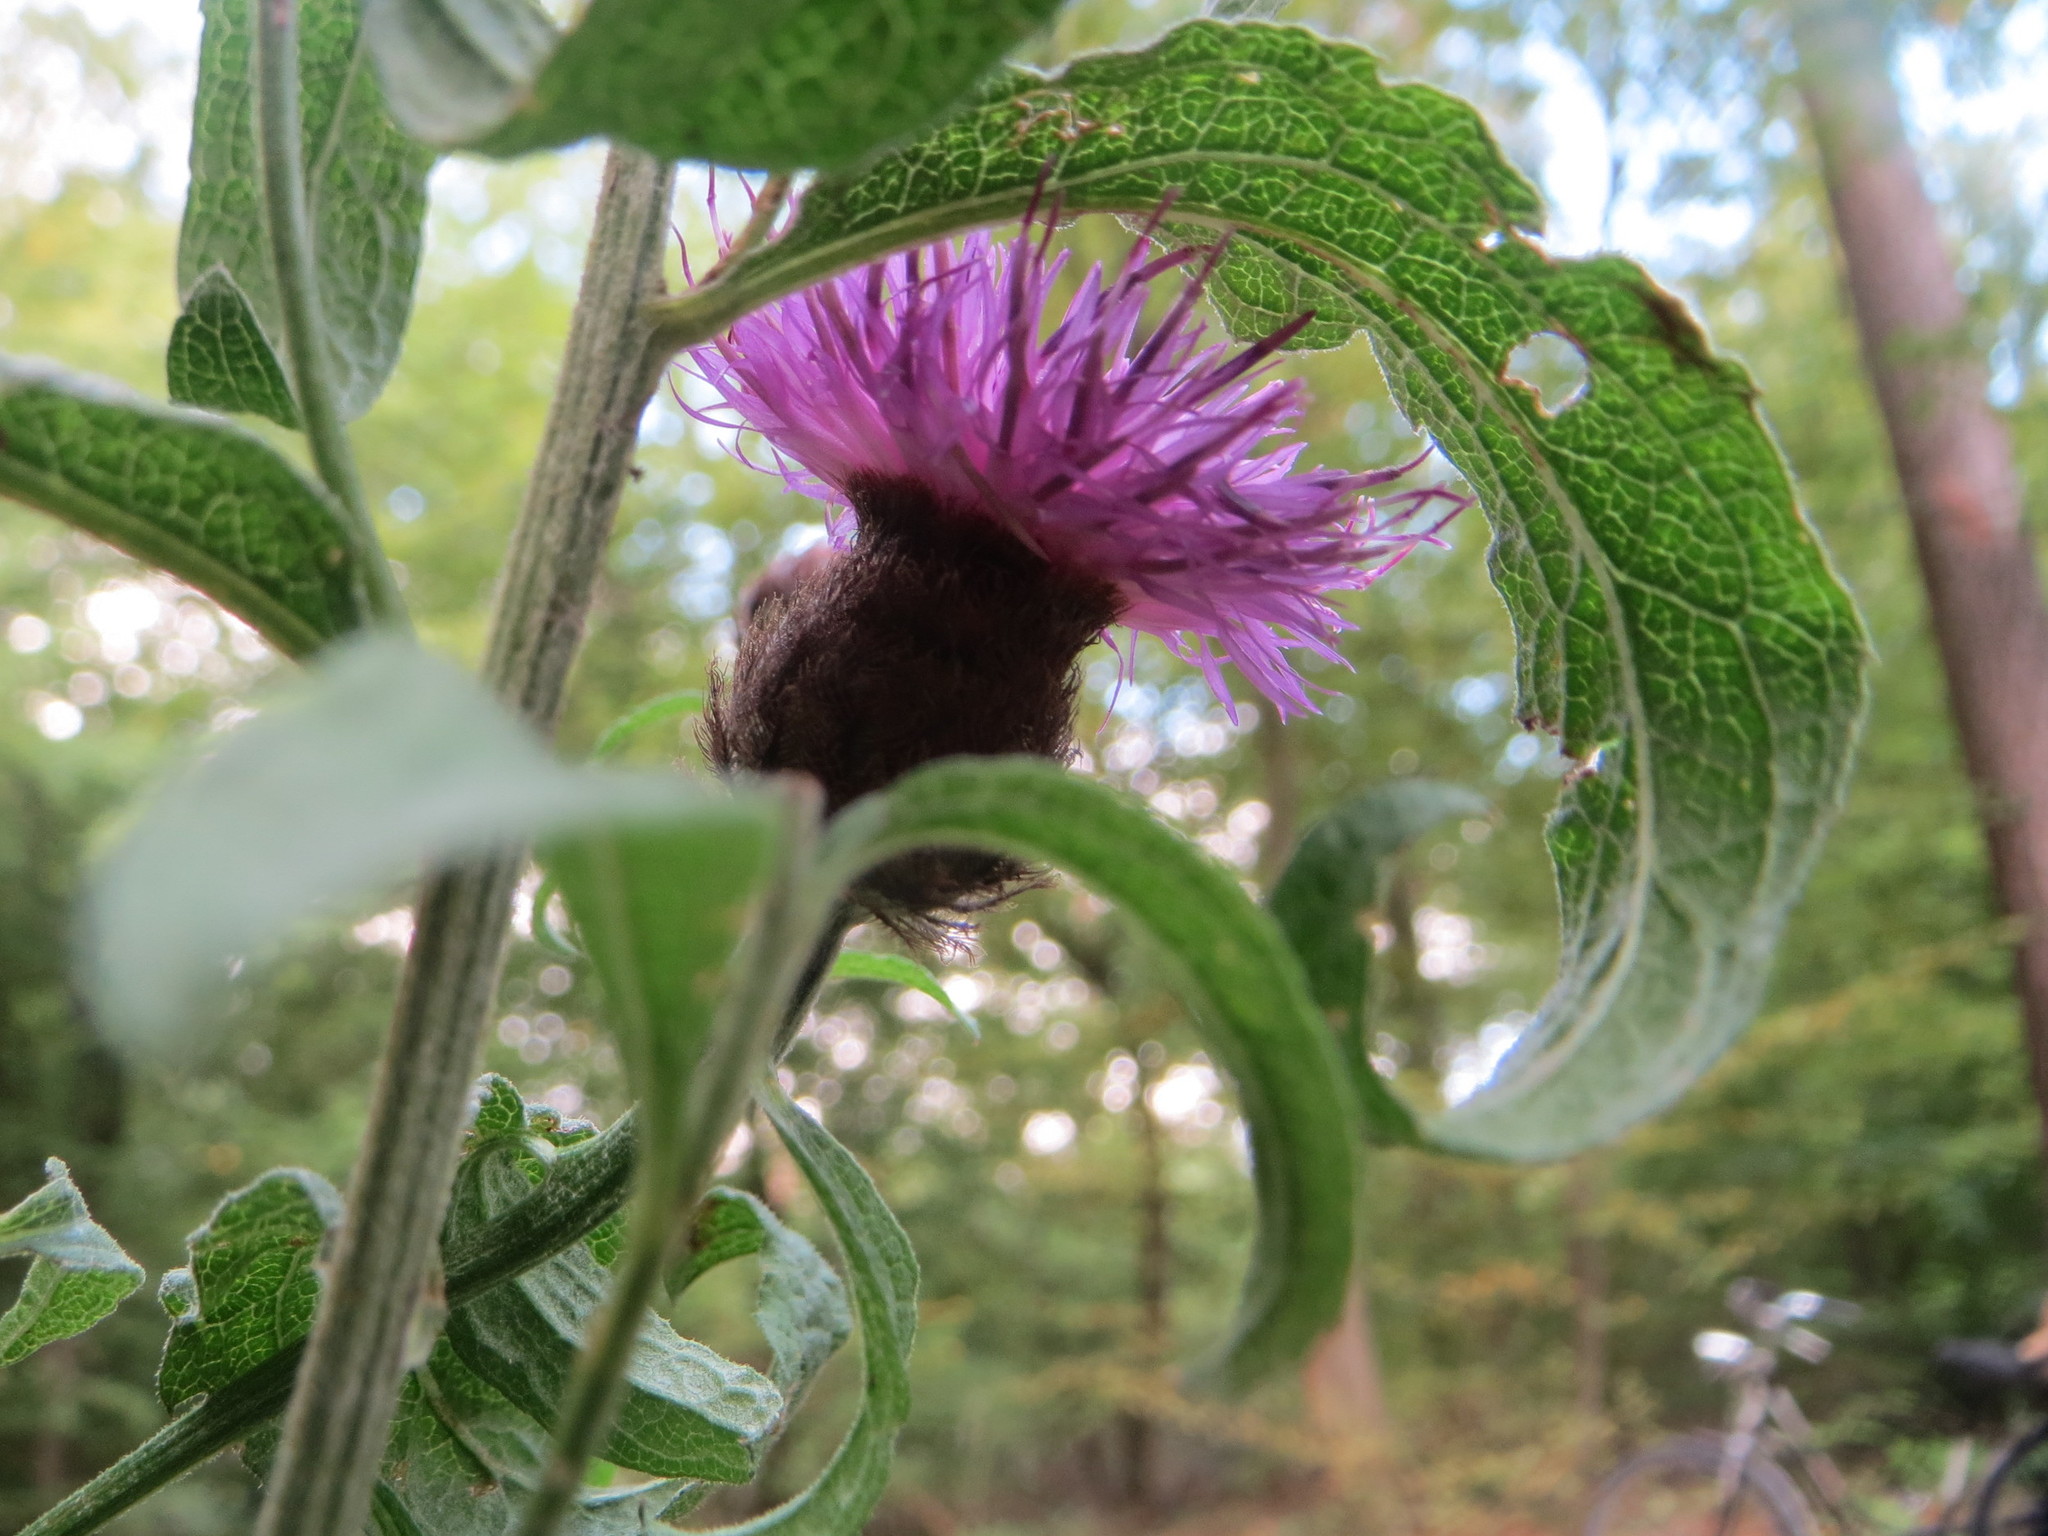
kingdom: Plantae
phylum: Tracheophyta
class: Magnoliopsida
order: Asterales
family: Asteraceae
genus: Centaurea
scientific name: Centaurea nigra
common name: Lesser knapweed
